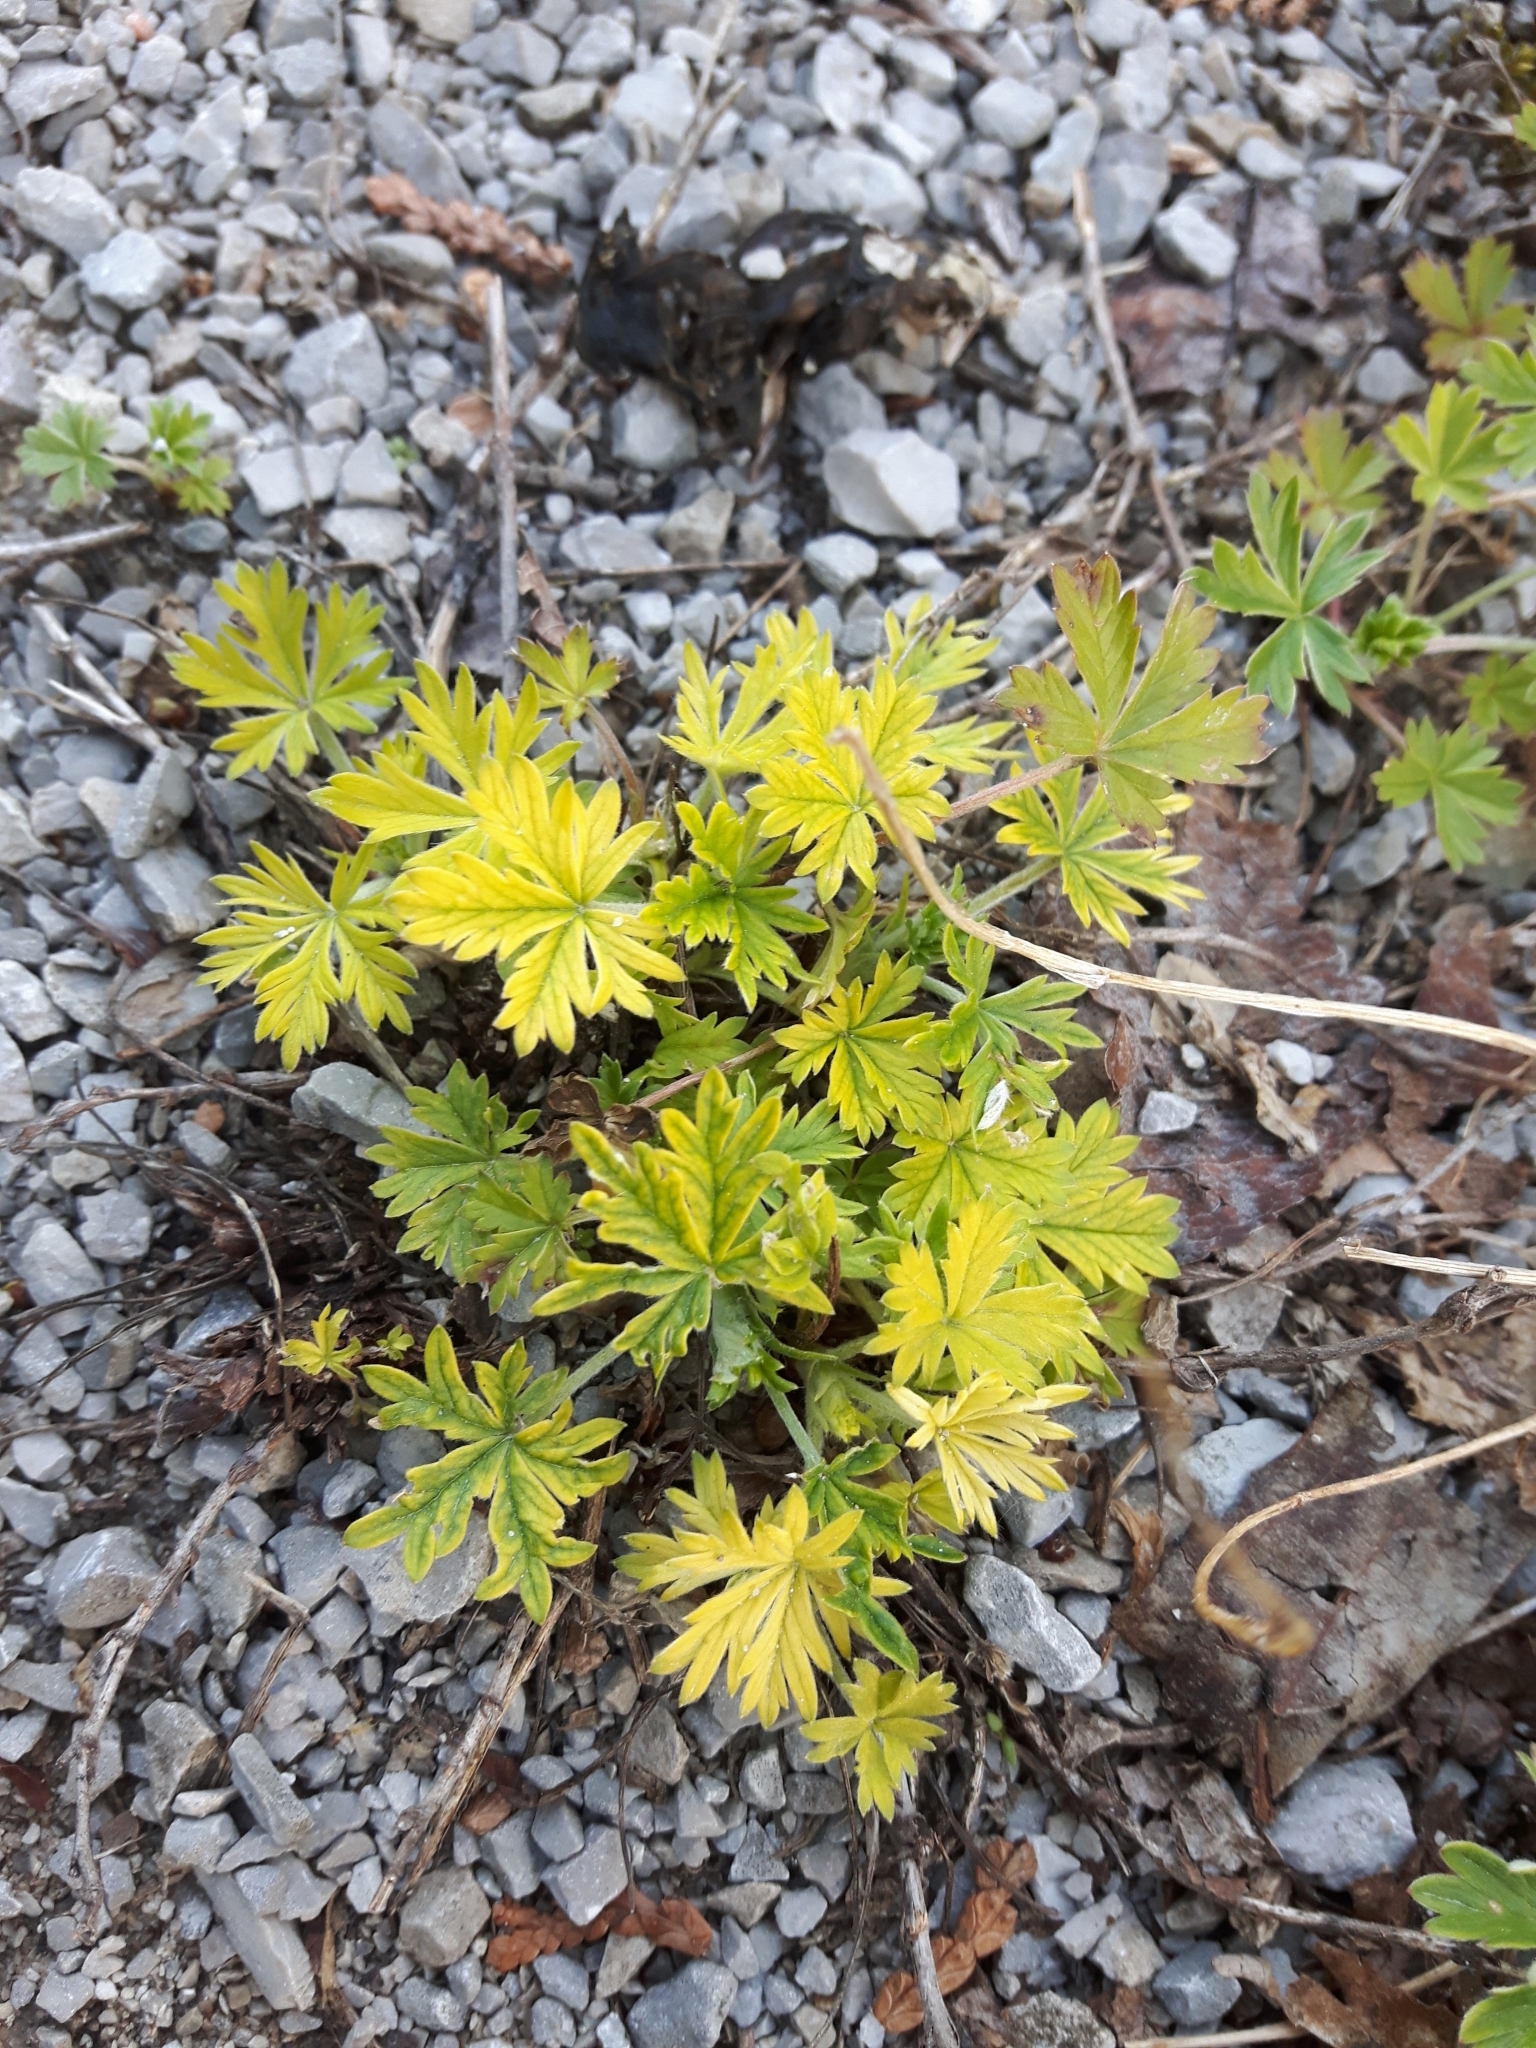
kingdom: Plantae
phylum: Tracheophyta
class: Magnoliopsida
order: Rosales
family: Rosaceae
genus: Potentilla
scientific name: Potentilla argentea
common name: Hoary cinquefoil
